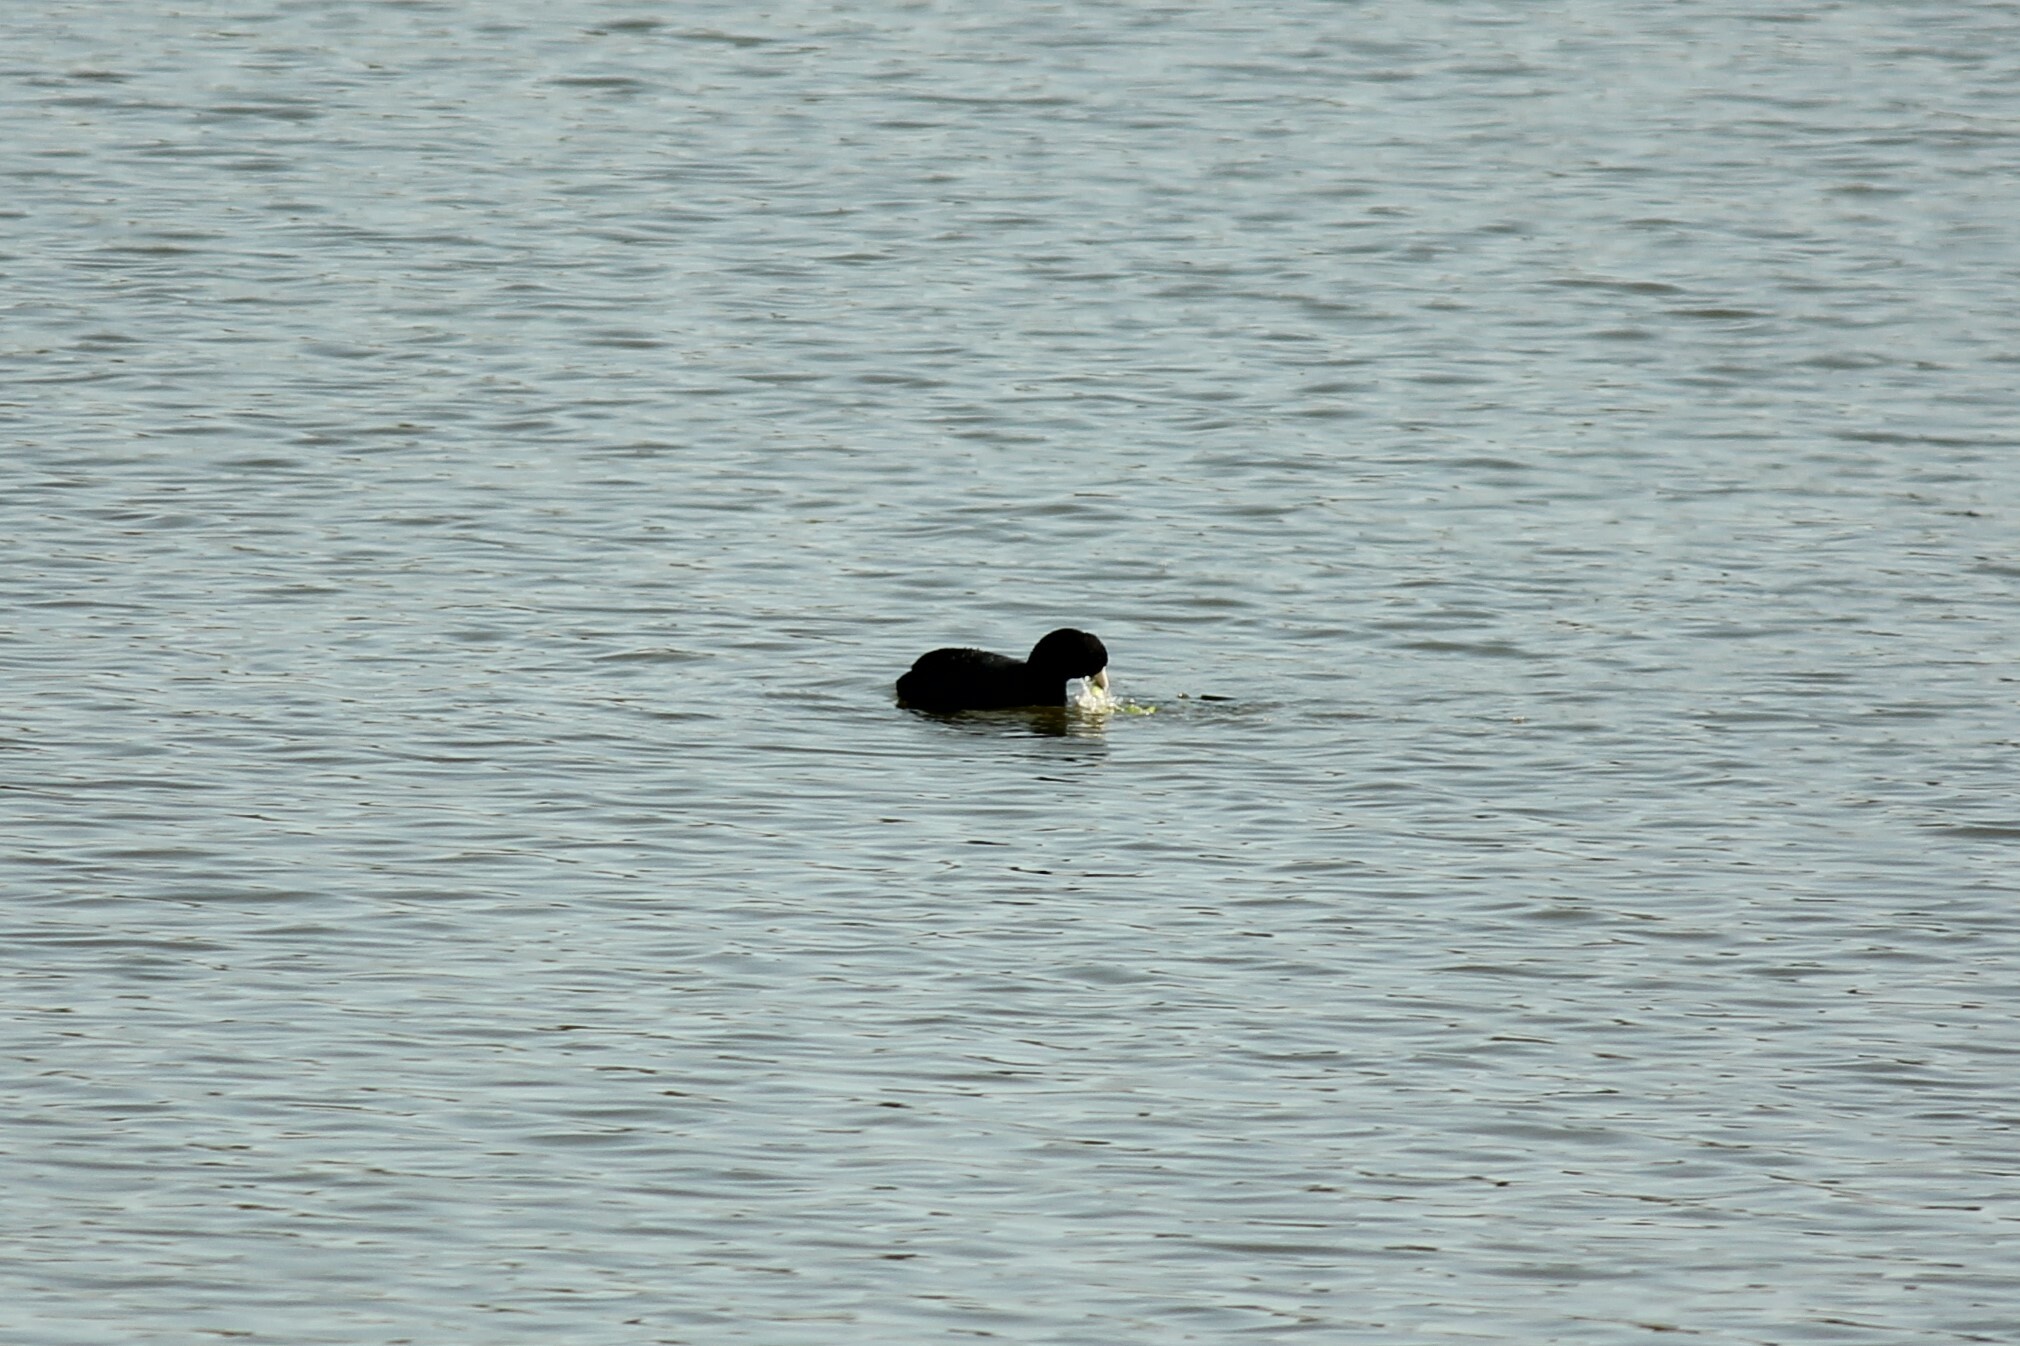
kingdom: Animalia
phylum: Chordata
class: Aves
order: Gruiformes
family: Rallidae
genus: Fulica
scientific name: Fulica americana
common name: American coot
